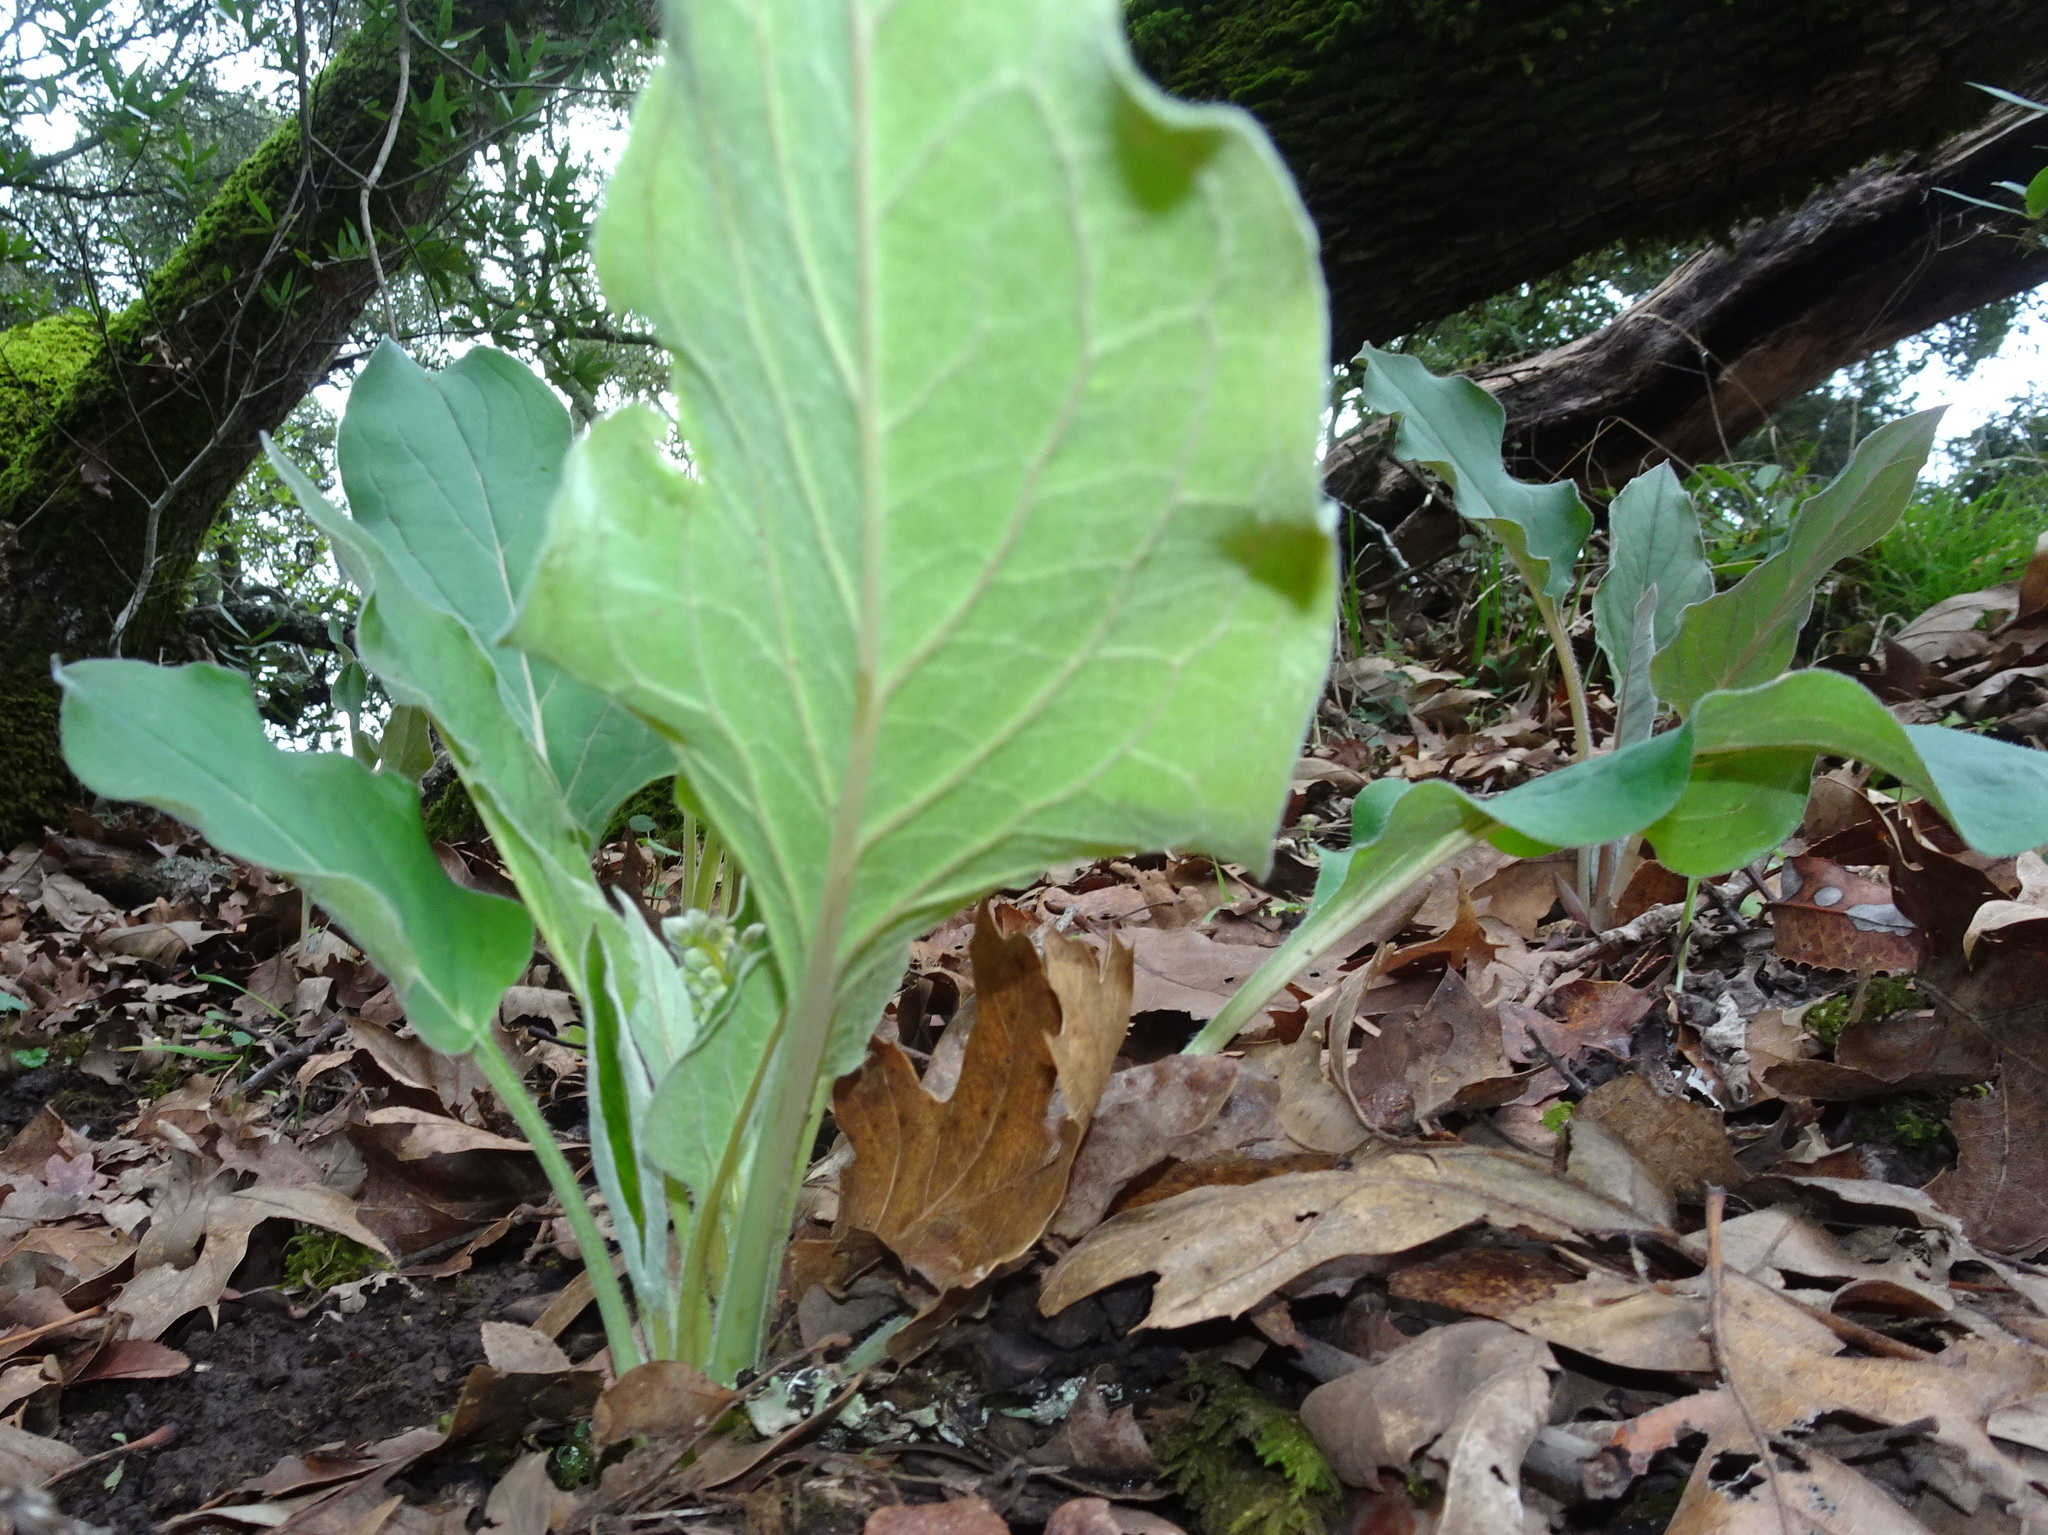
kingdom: Plantae
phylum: Tracheophyta
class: Magnoliopsida
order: Boraginales
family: Boraginaceae
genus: Adelinia
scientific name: Adelinia grande
